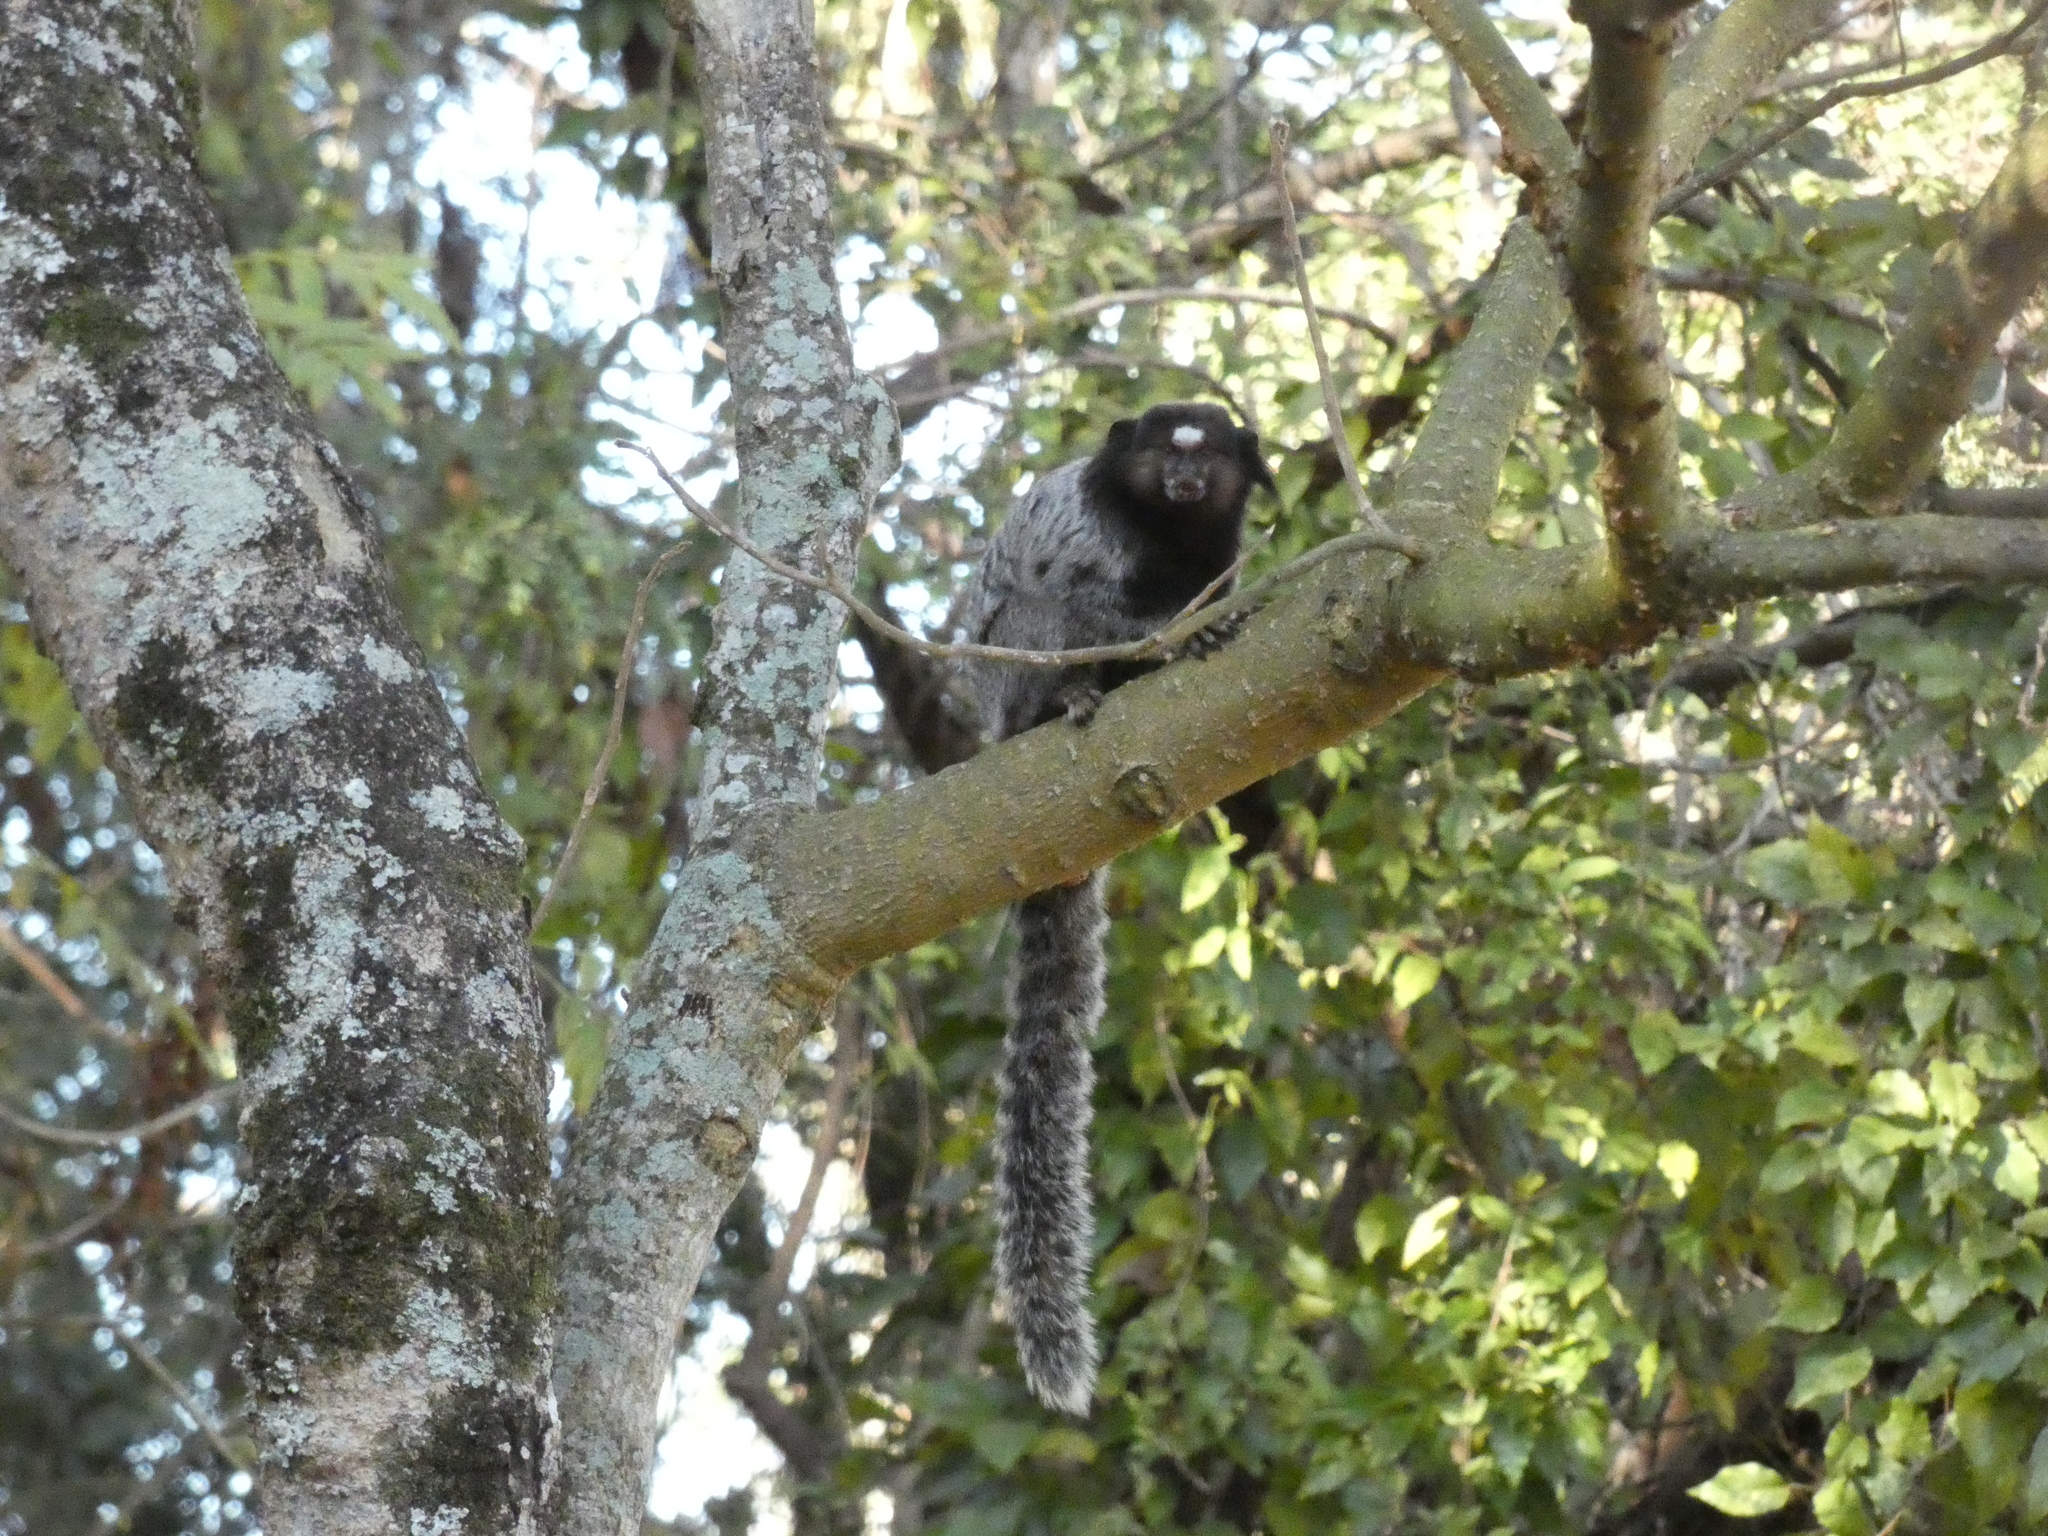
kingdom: Animalia
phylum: Chordata
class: Mammalia
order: Primates
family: Callitrichidae
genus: Callithrix
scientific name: Callithrix penicillata
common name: Black-tufted marmoset
